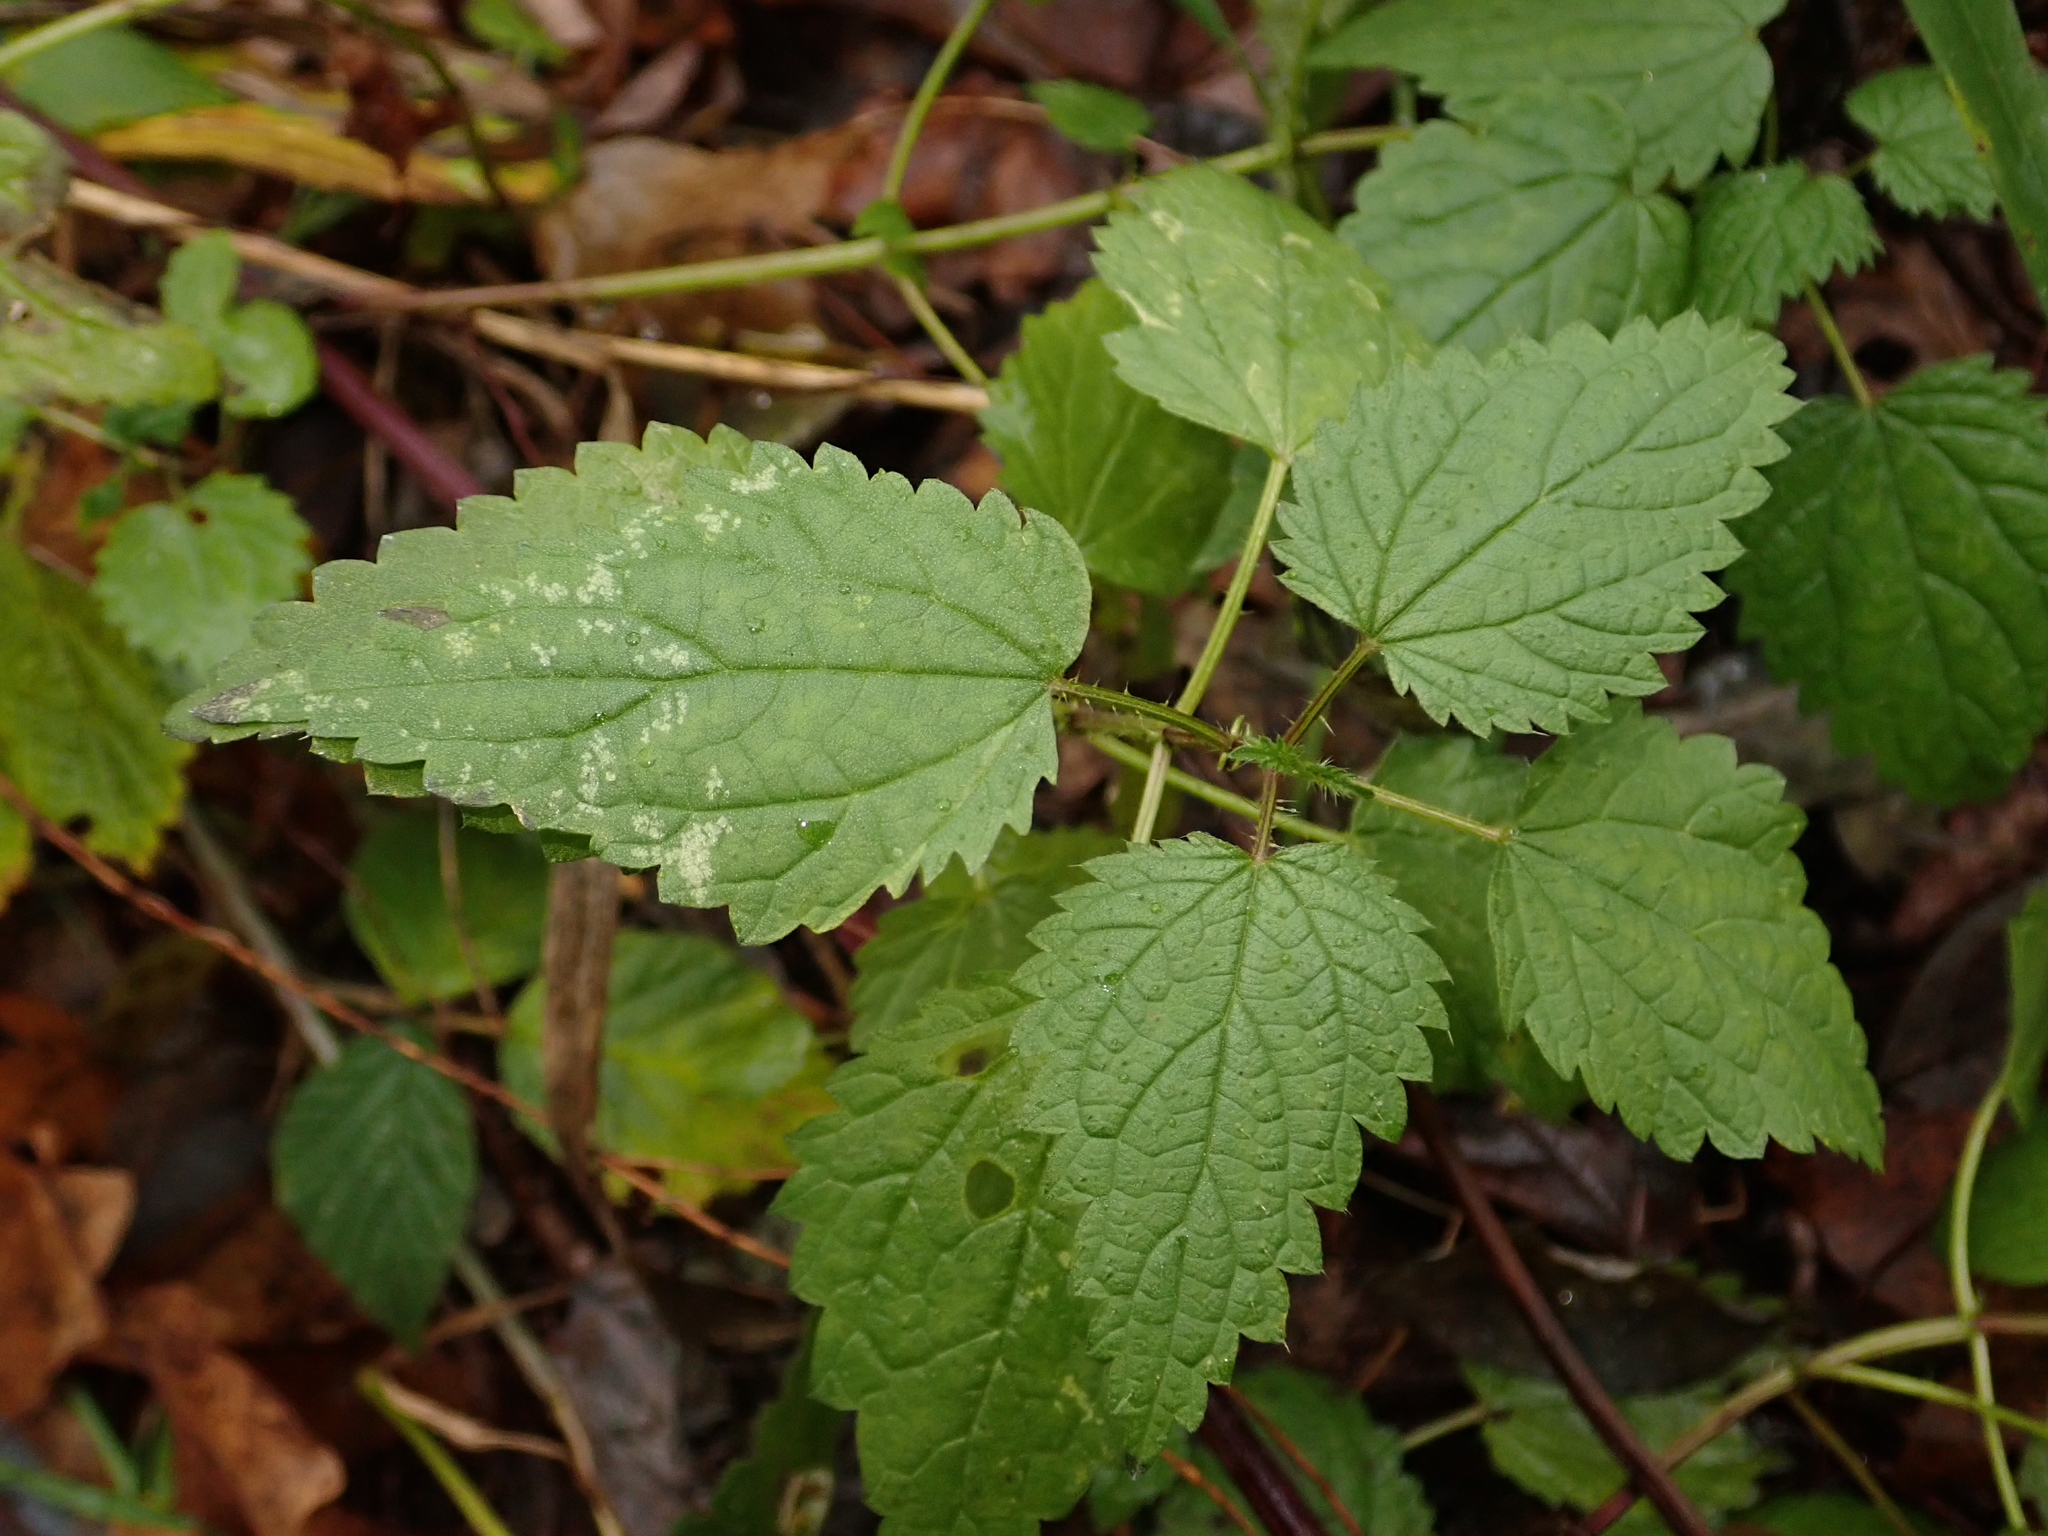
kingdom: Plantae
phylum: Tracheophyta
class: Magnoliopsida
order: Rosales
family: Urticaceae
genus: Urtica
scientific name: Urtica dioica
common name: Common nettle
